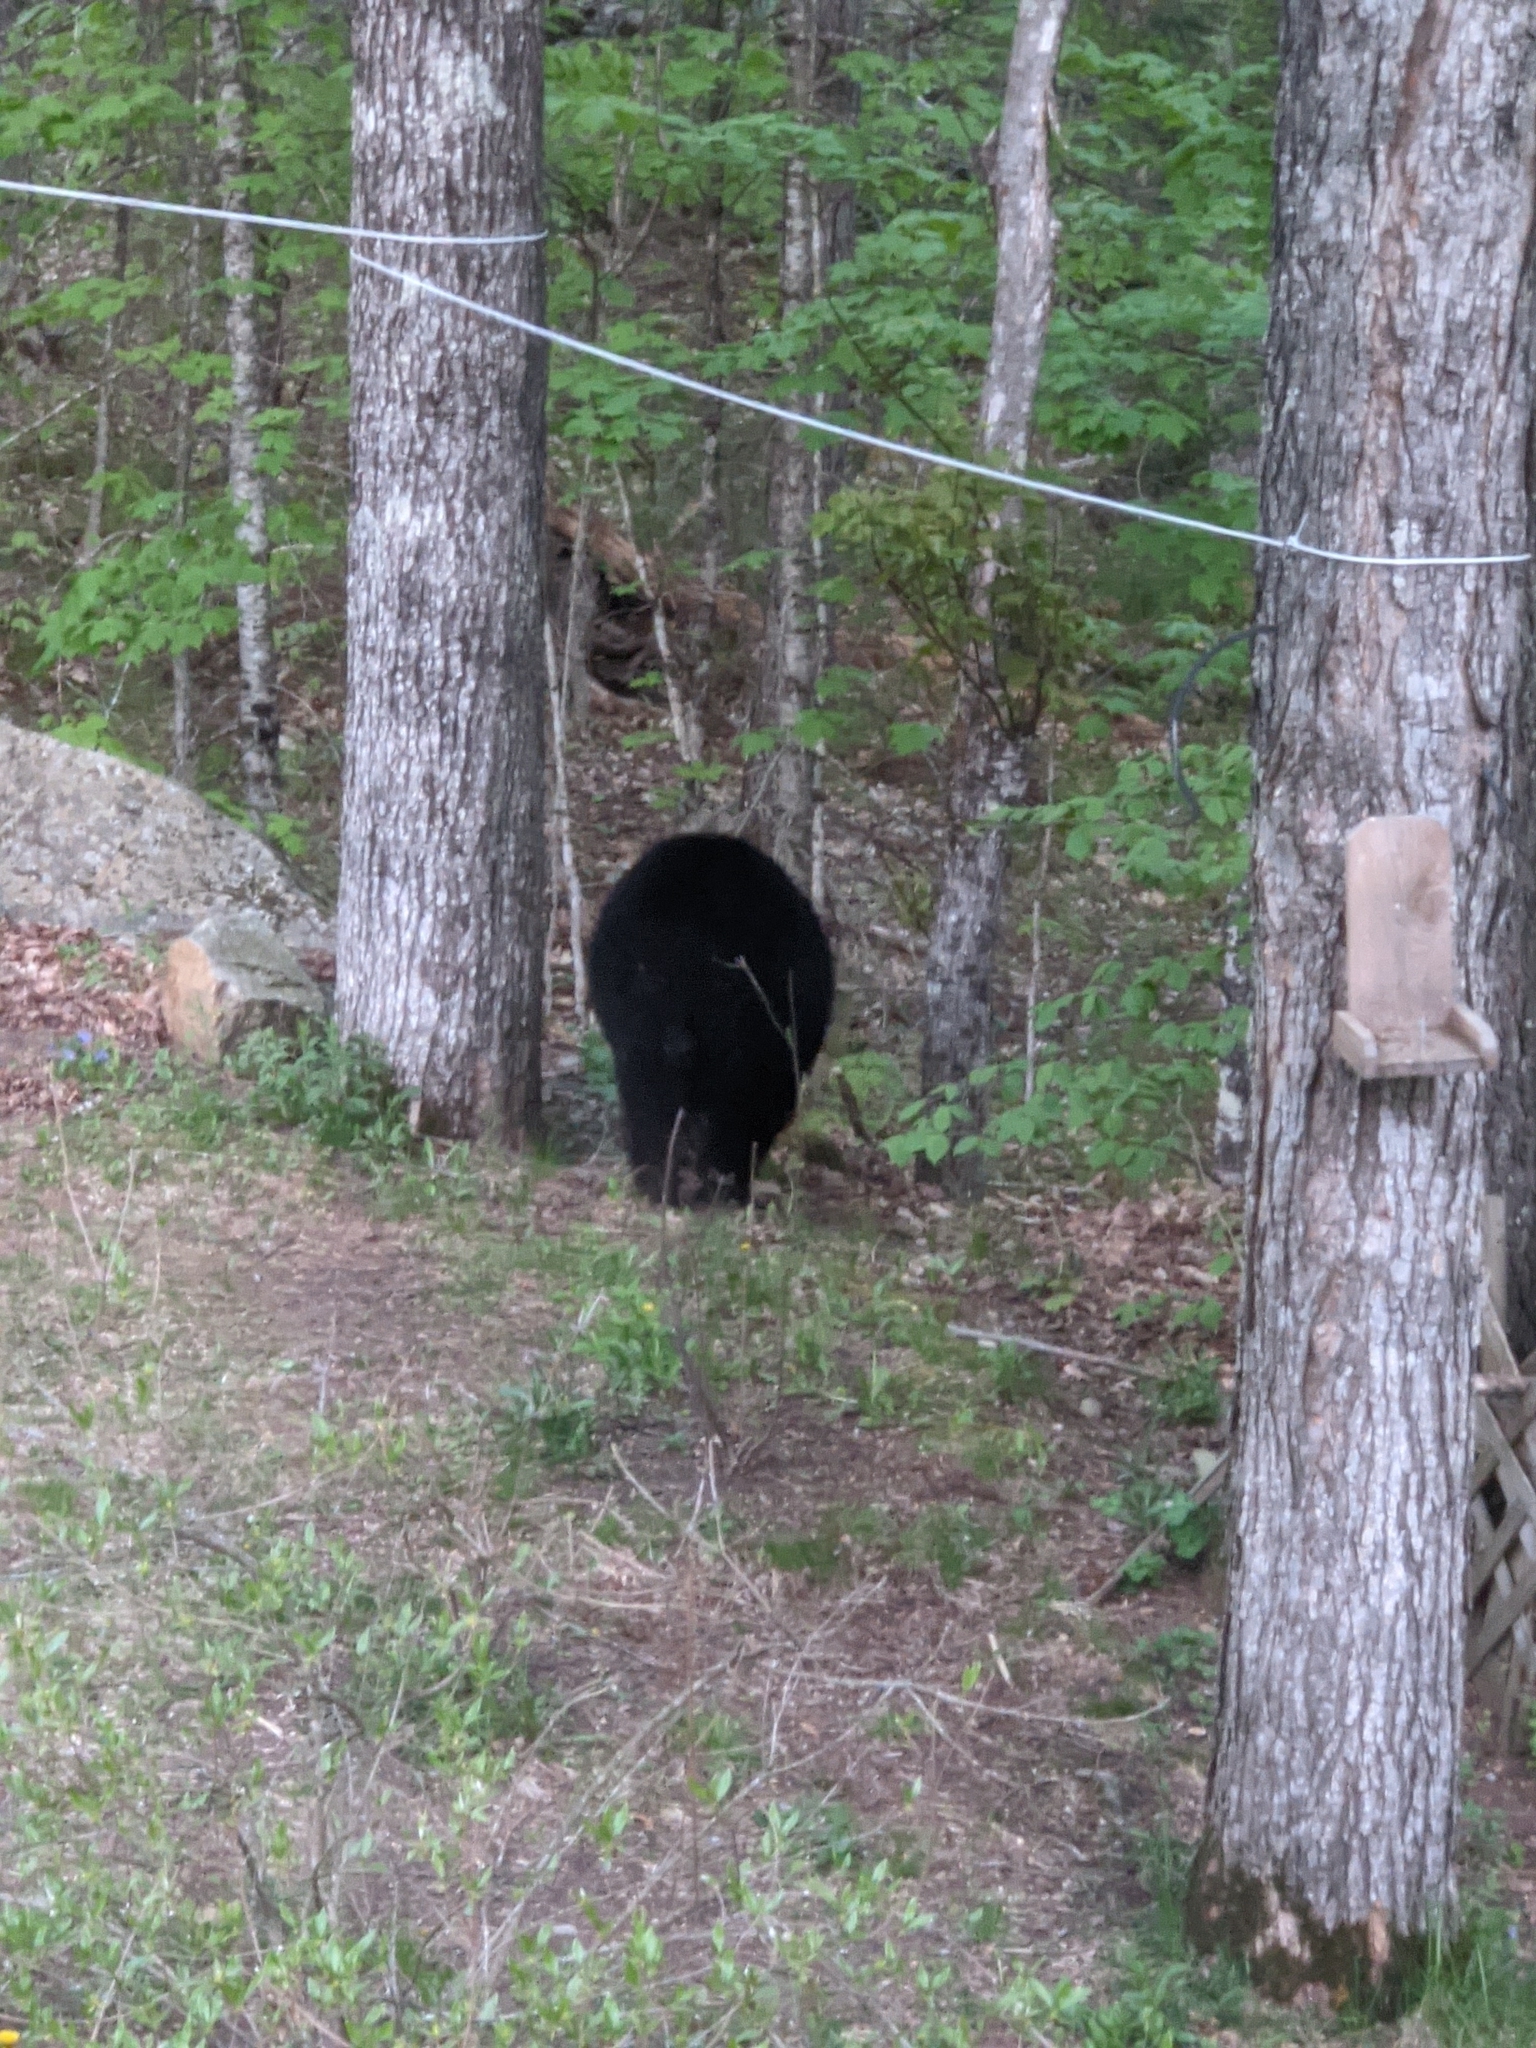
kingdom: Animalia
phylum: Chordata
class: Mammalia
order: Carnivora
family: Ursidae
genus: Ursus
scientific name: Ursus americanus
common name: American black bear
